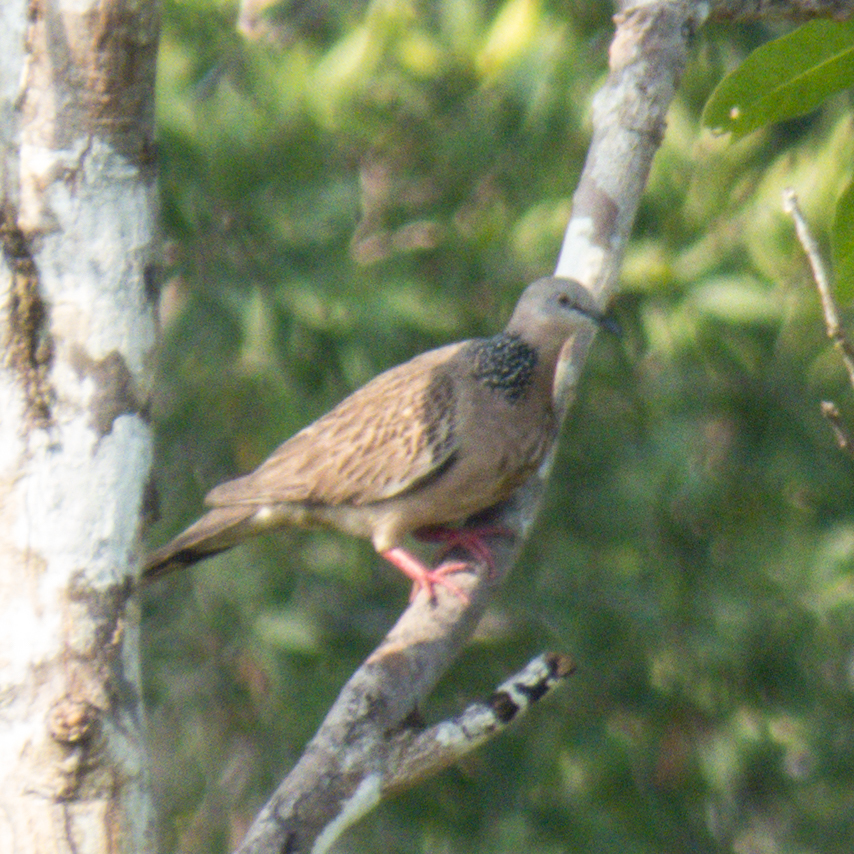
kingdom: Animalia
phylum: Chordata
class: Aves
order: Columbiformes
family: Columbidae
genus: Spilopelia
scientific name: Spilopelia chinensis
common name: Spotted dove
